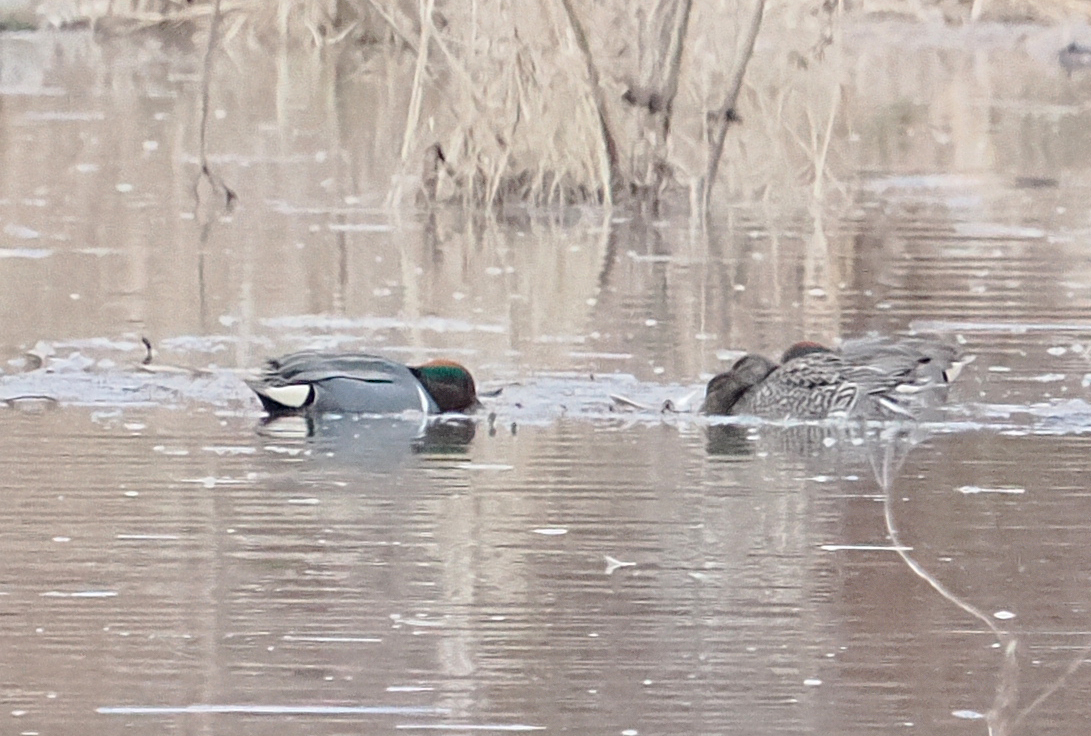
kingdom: Animalia
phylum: Chordata
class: Aves
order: Anseriformes
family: Anatidae
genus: Anas
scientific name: Anas crecca
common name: Eurasian teal
